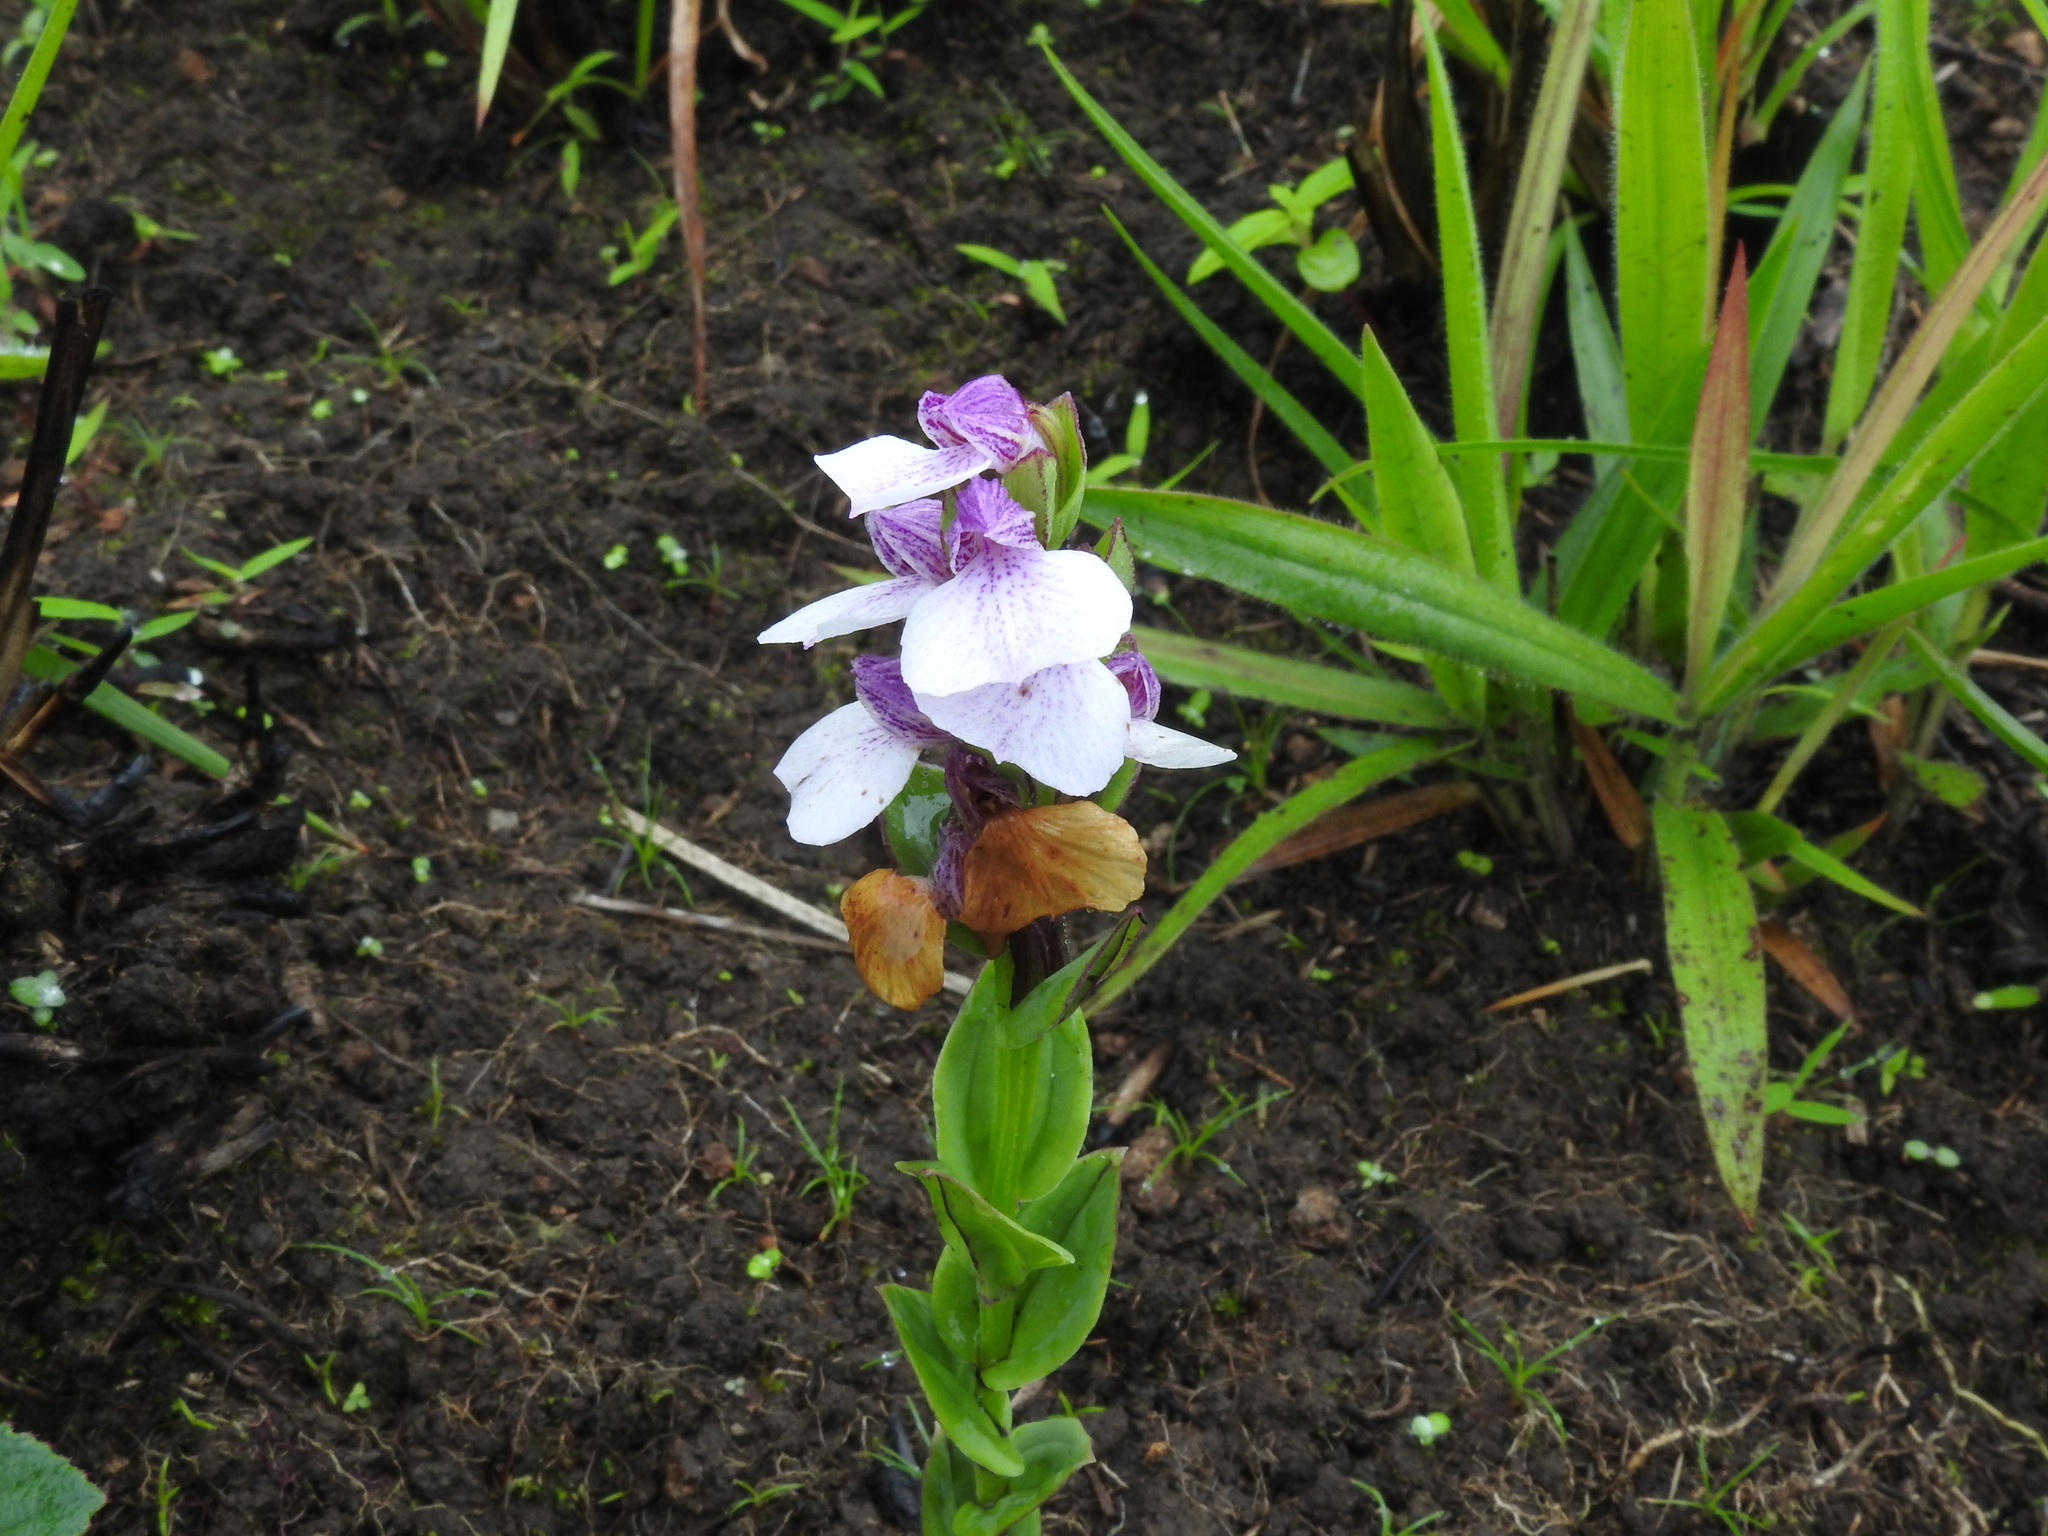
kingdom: Plantae
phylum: Tracheophyta
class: Liliopsida
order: Asparagales
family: Orchidaceae
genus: Brachycorythis
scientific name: Brachycorythis wightii
